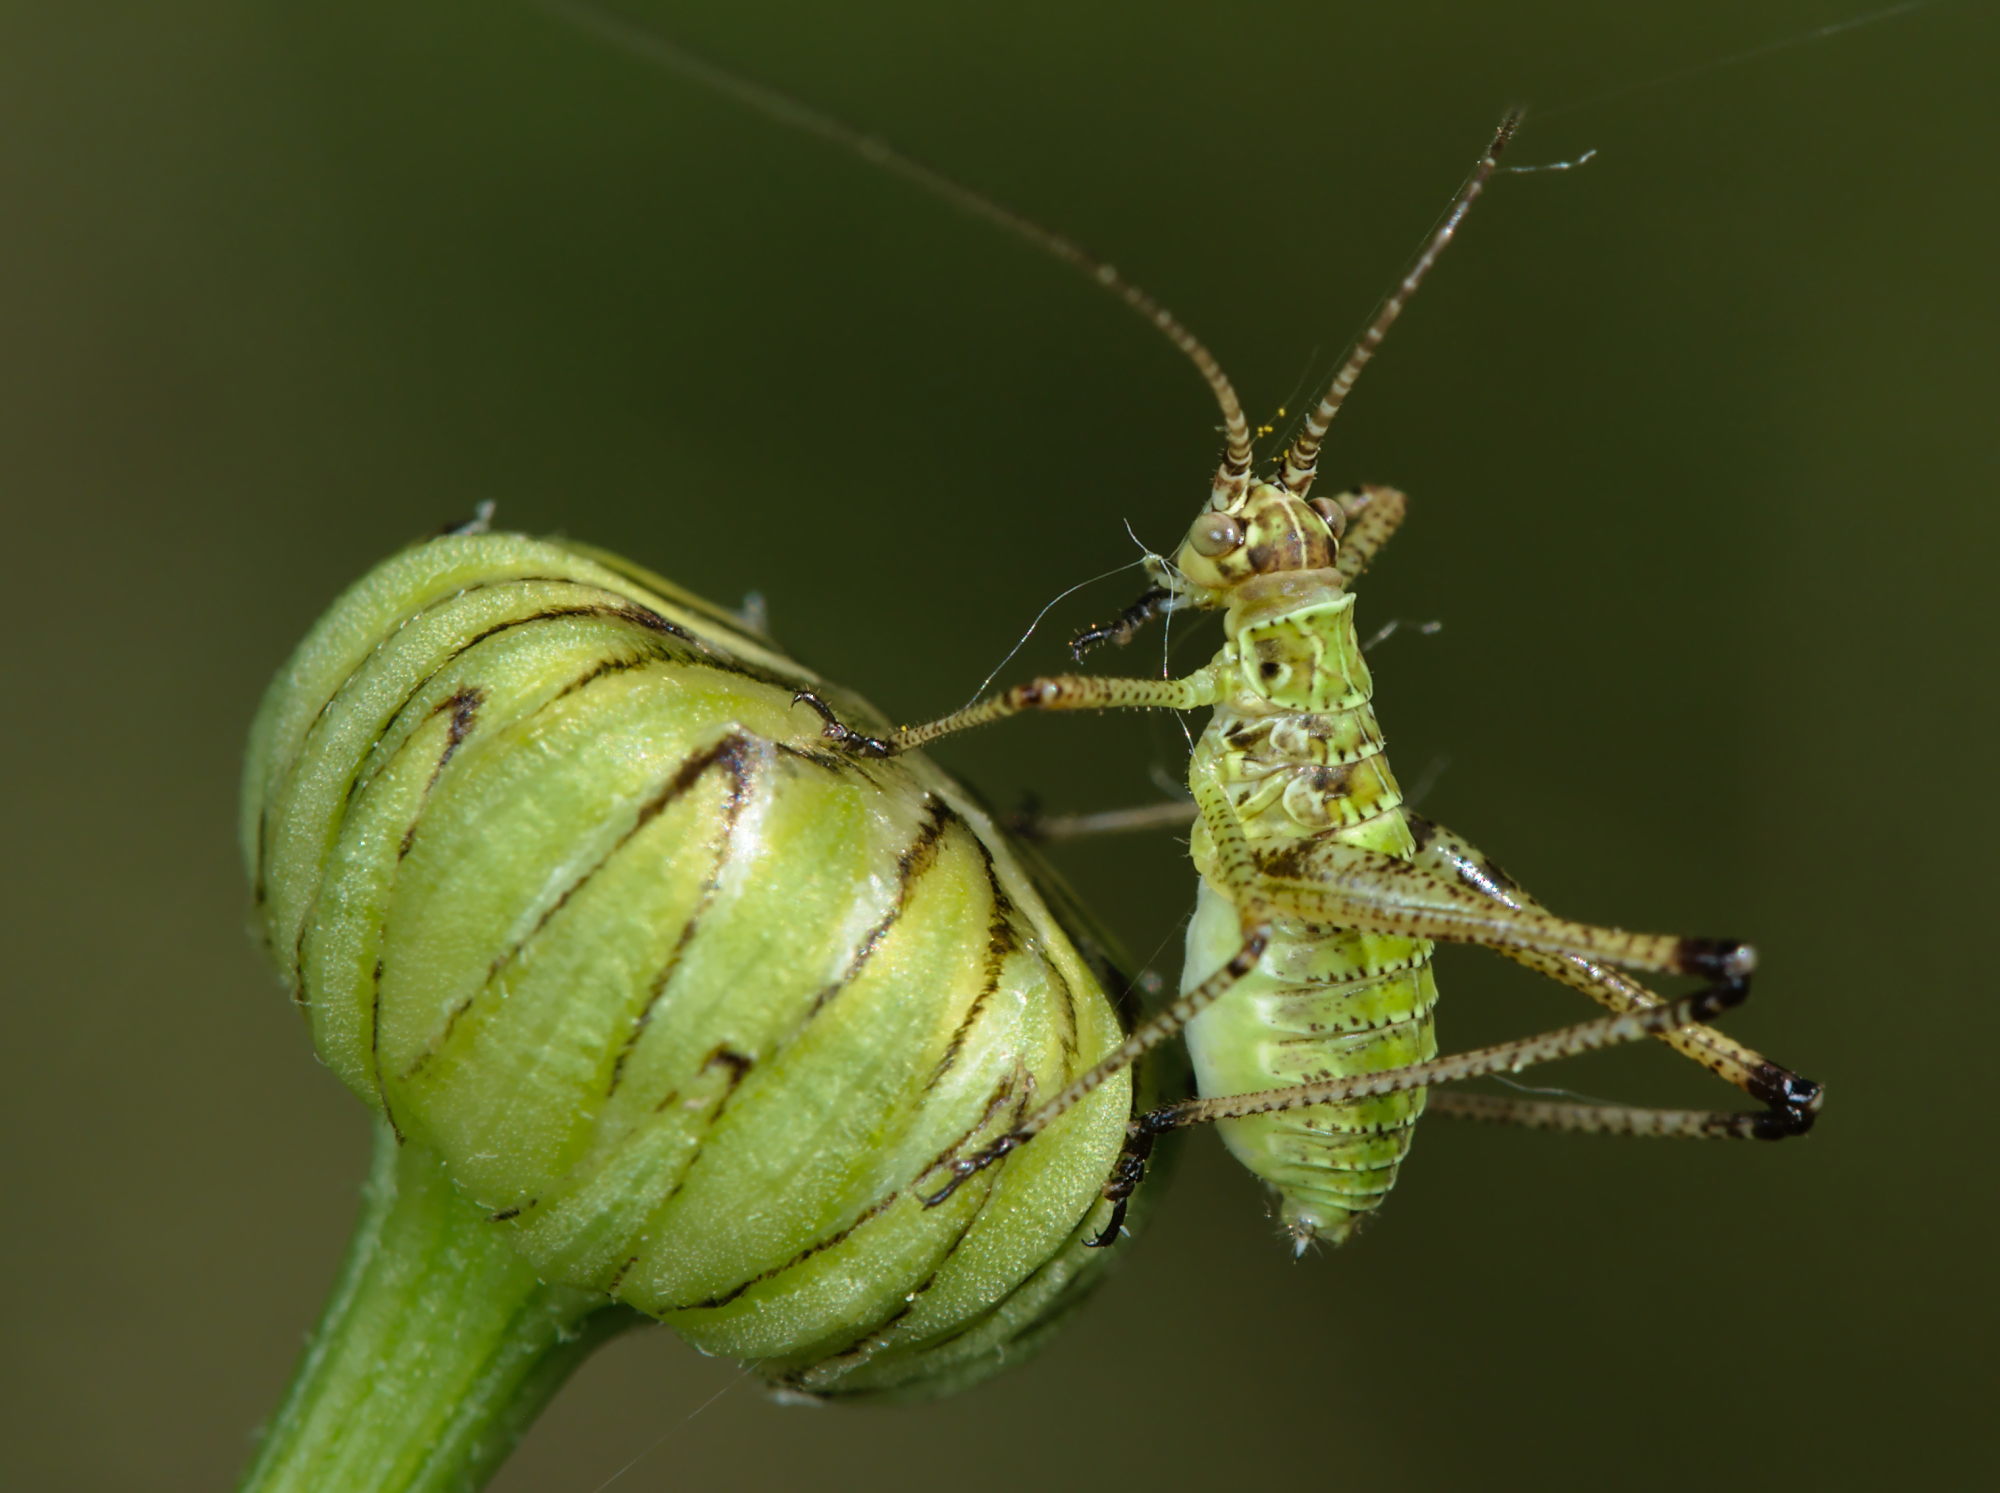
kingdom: Animalia
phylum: Arthropoda
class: Insecta
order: Orthoptera
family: Tettigoniidae
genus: Phaneroptera
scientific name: Phaneroptera falcata
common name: Sickle-bearing bush-cricket
